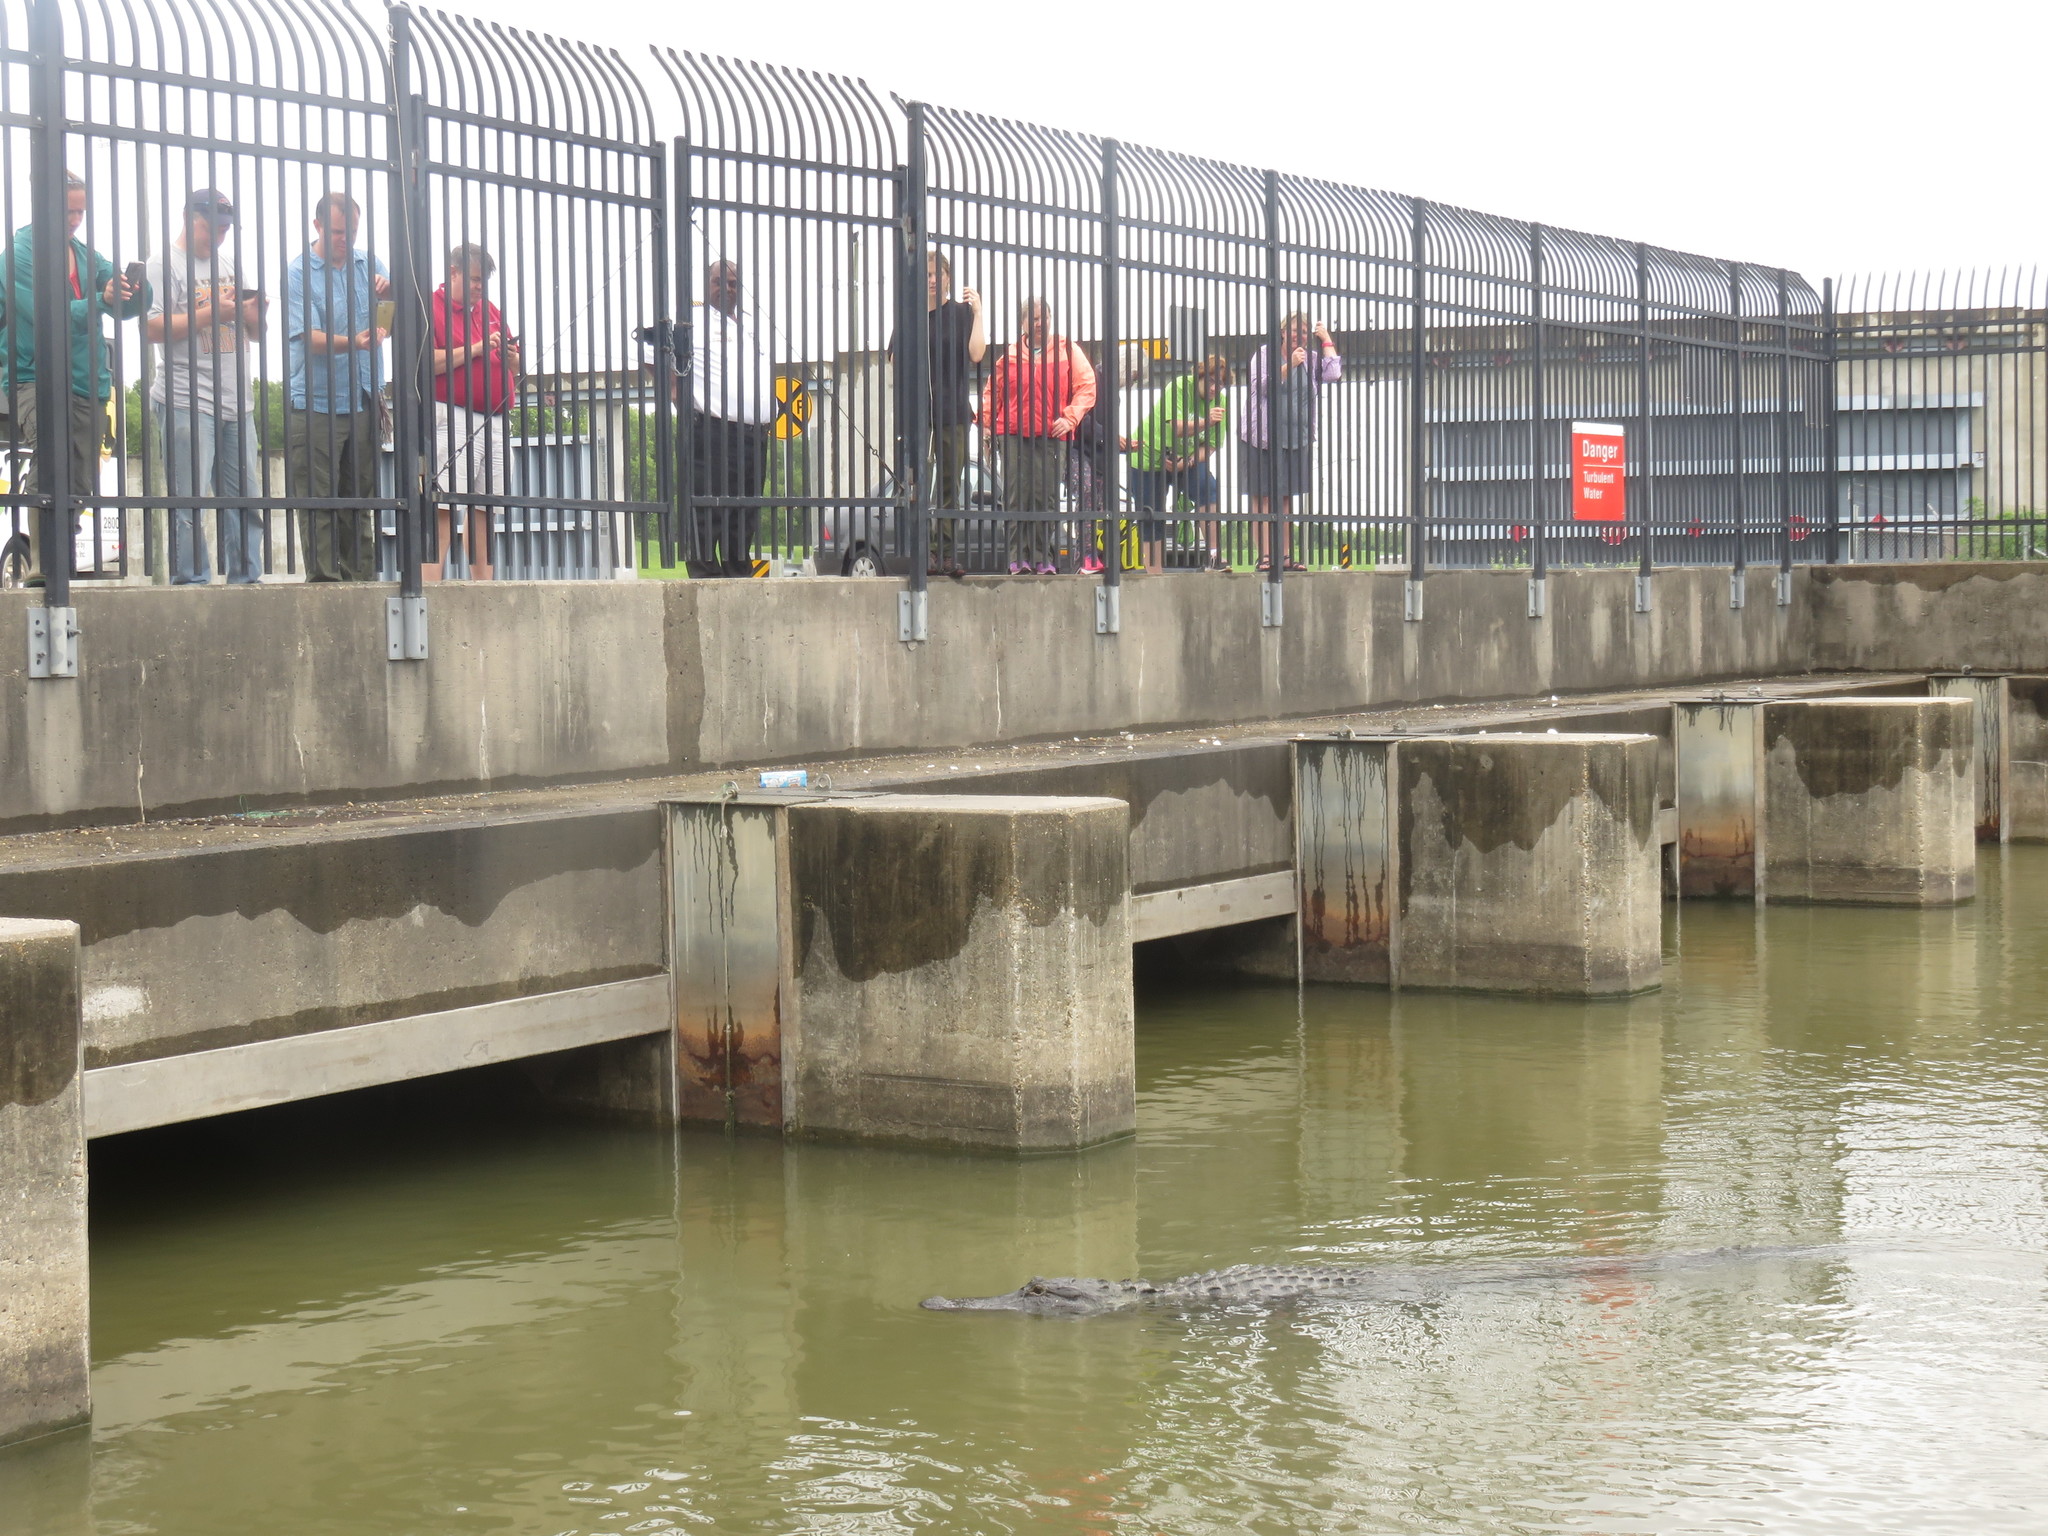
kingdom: Animalia
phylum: Chordata
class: Crocodylia
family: Alligatoridae
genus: Alligator
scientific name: Alligator mississippiensis
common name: American alligator
